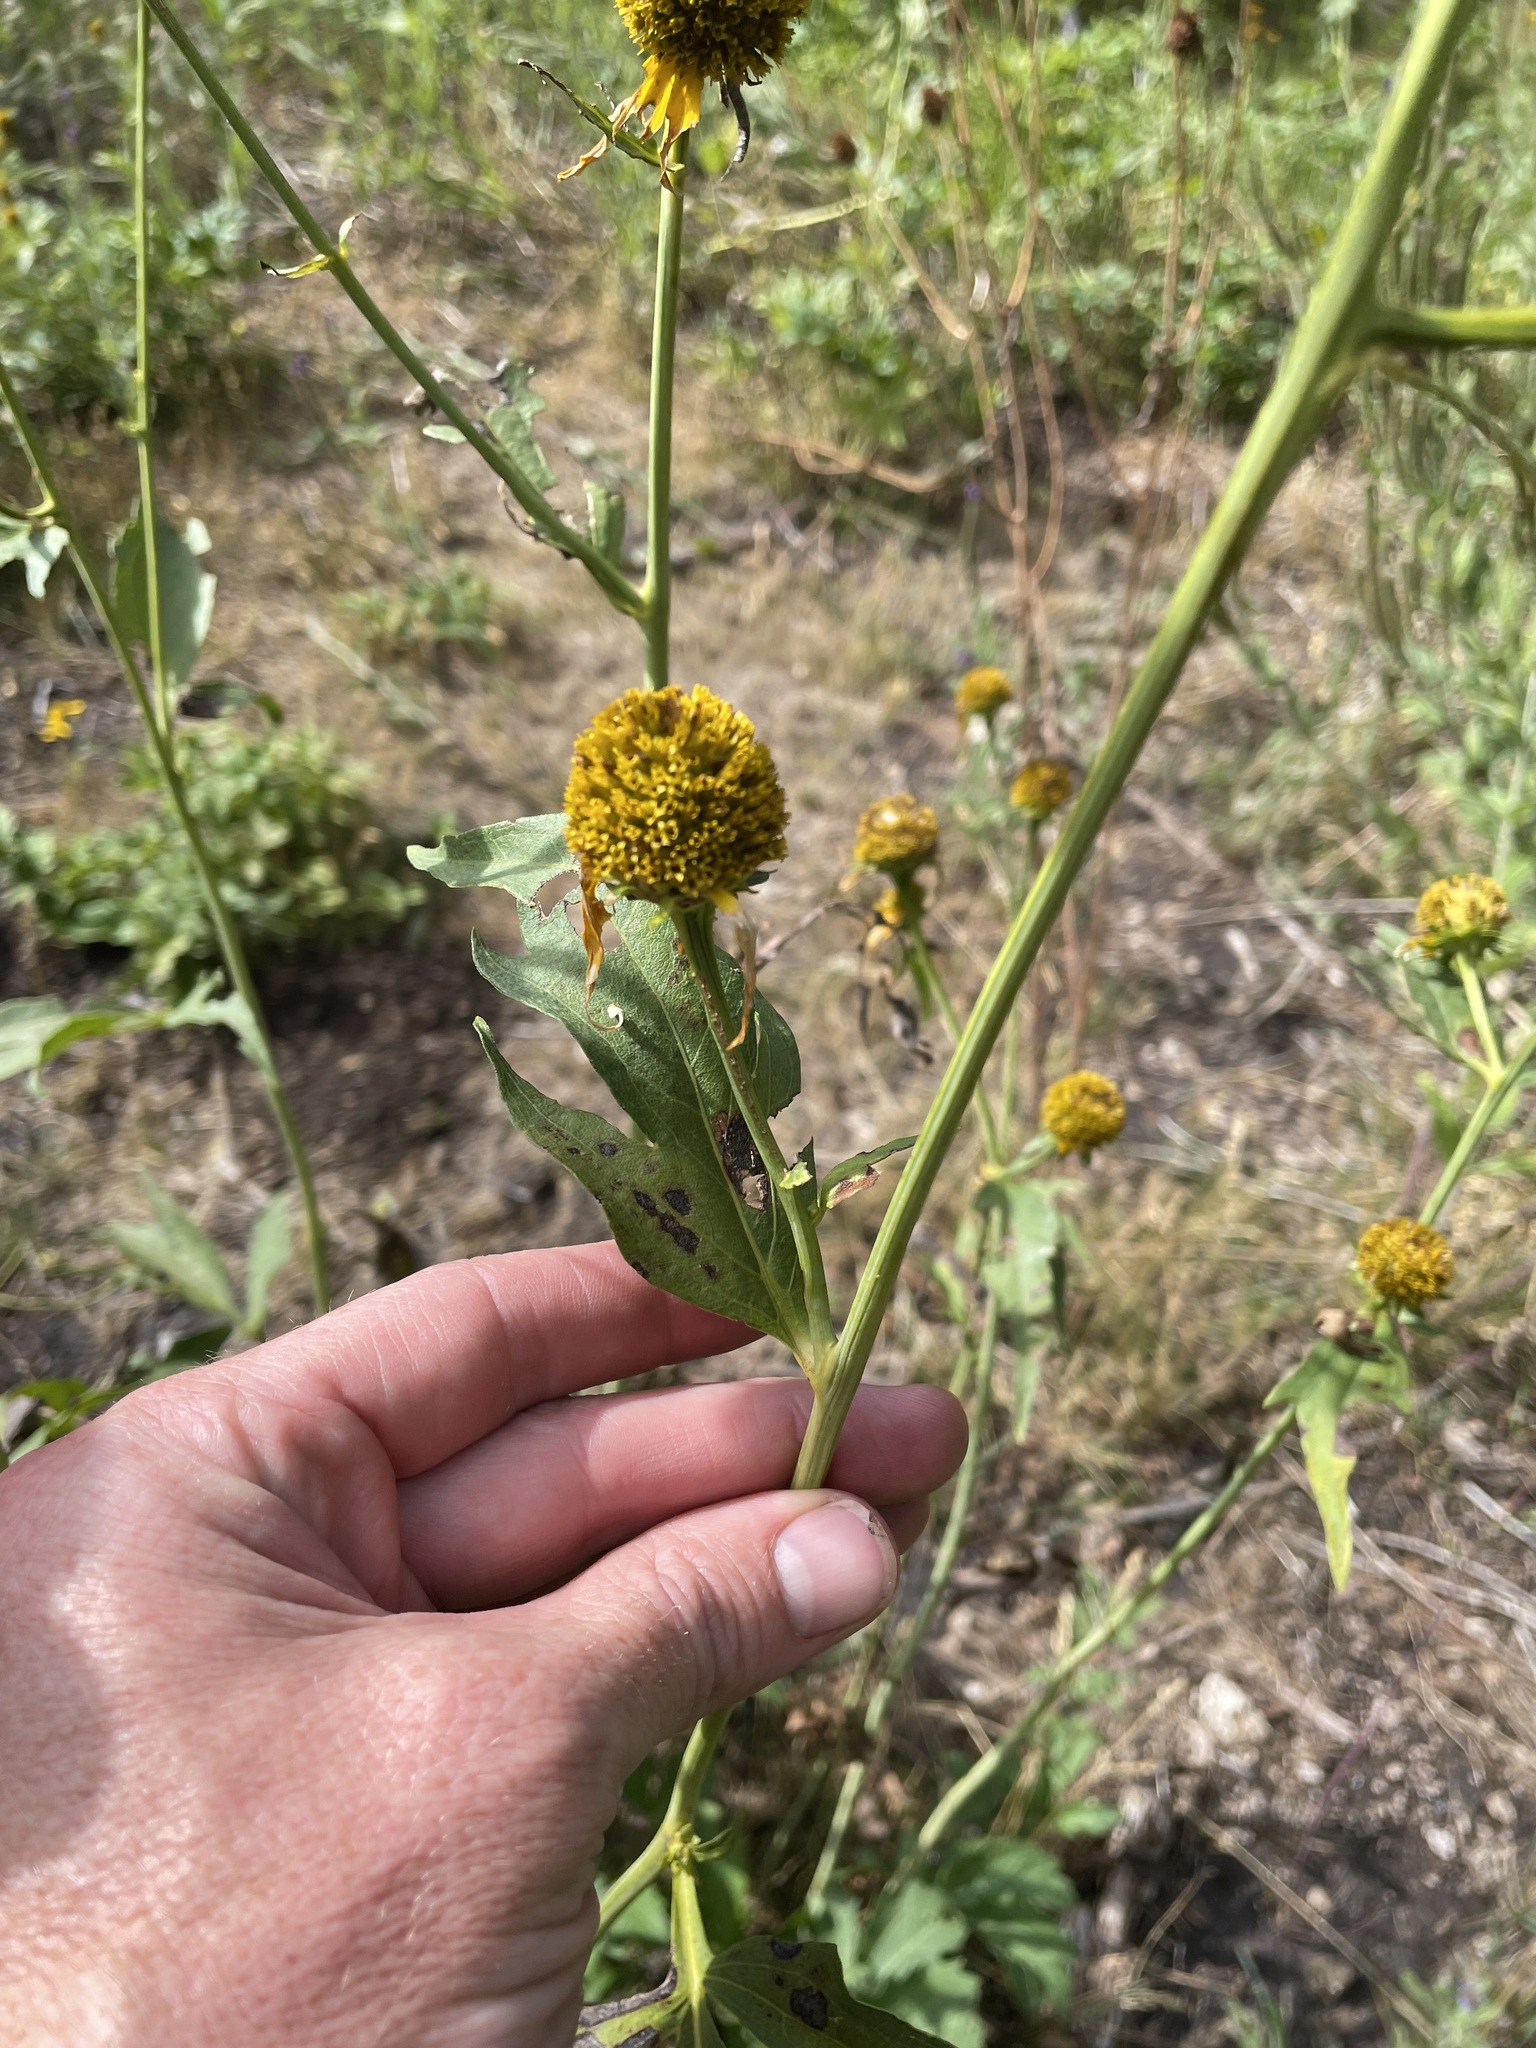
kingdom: Plantae
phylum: Tracheophyta
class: Magnoliopsida
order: Asterales
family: Asteraceae
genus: Rudbeckia
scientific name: Rudbeckia laciniata
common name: Coneflower
